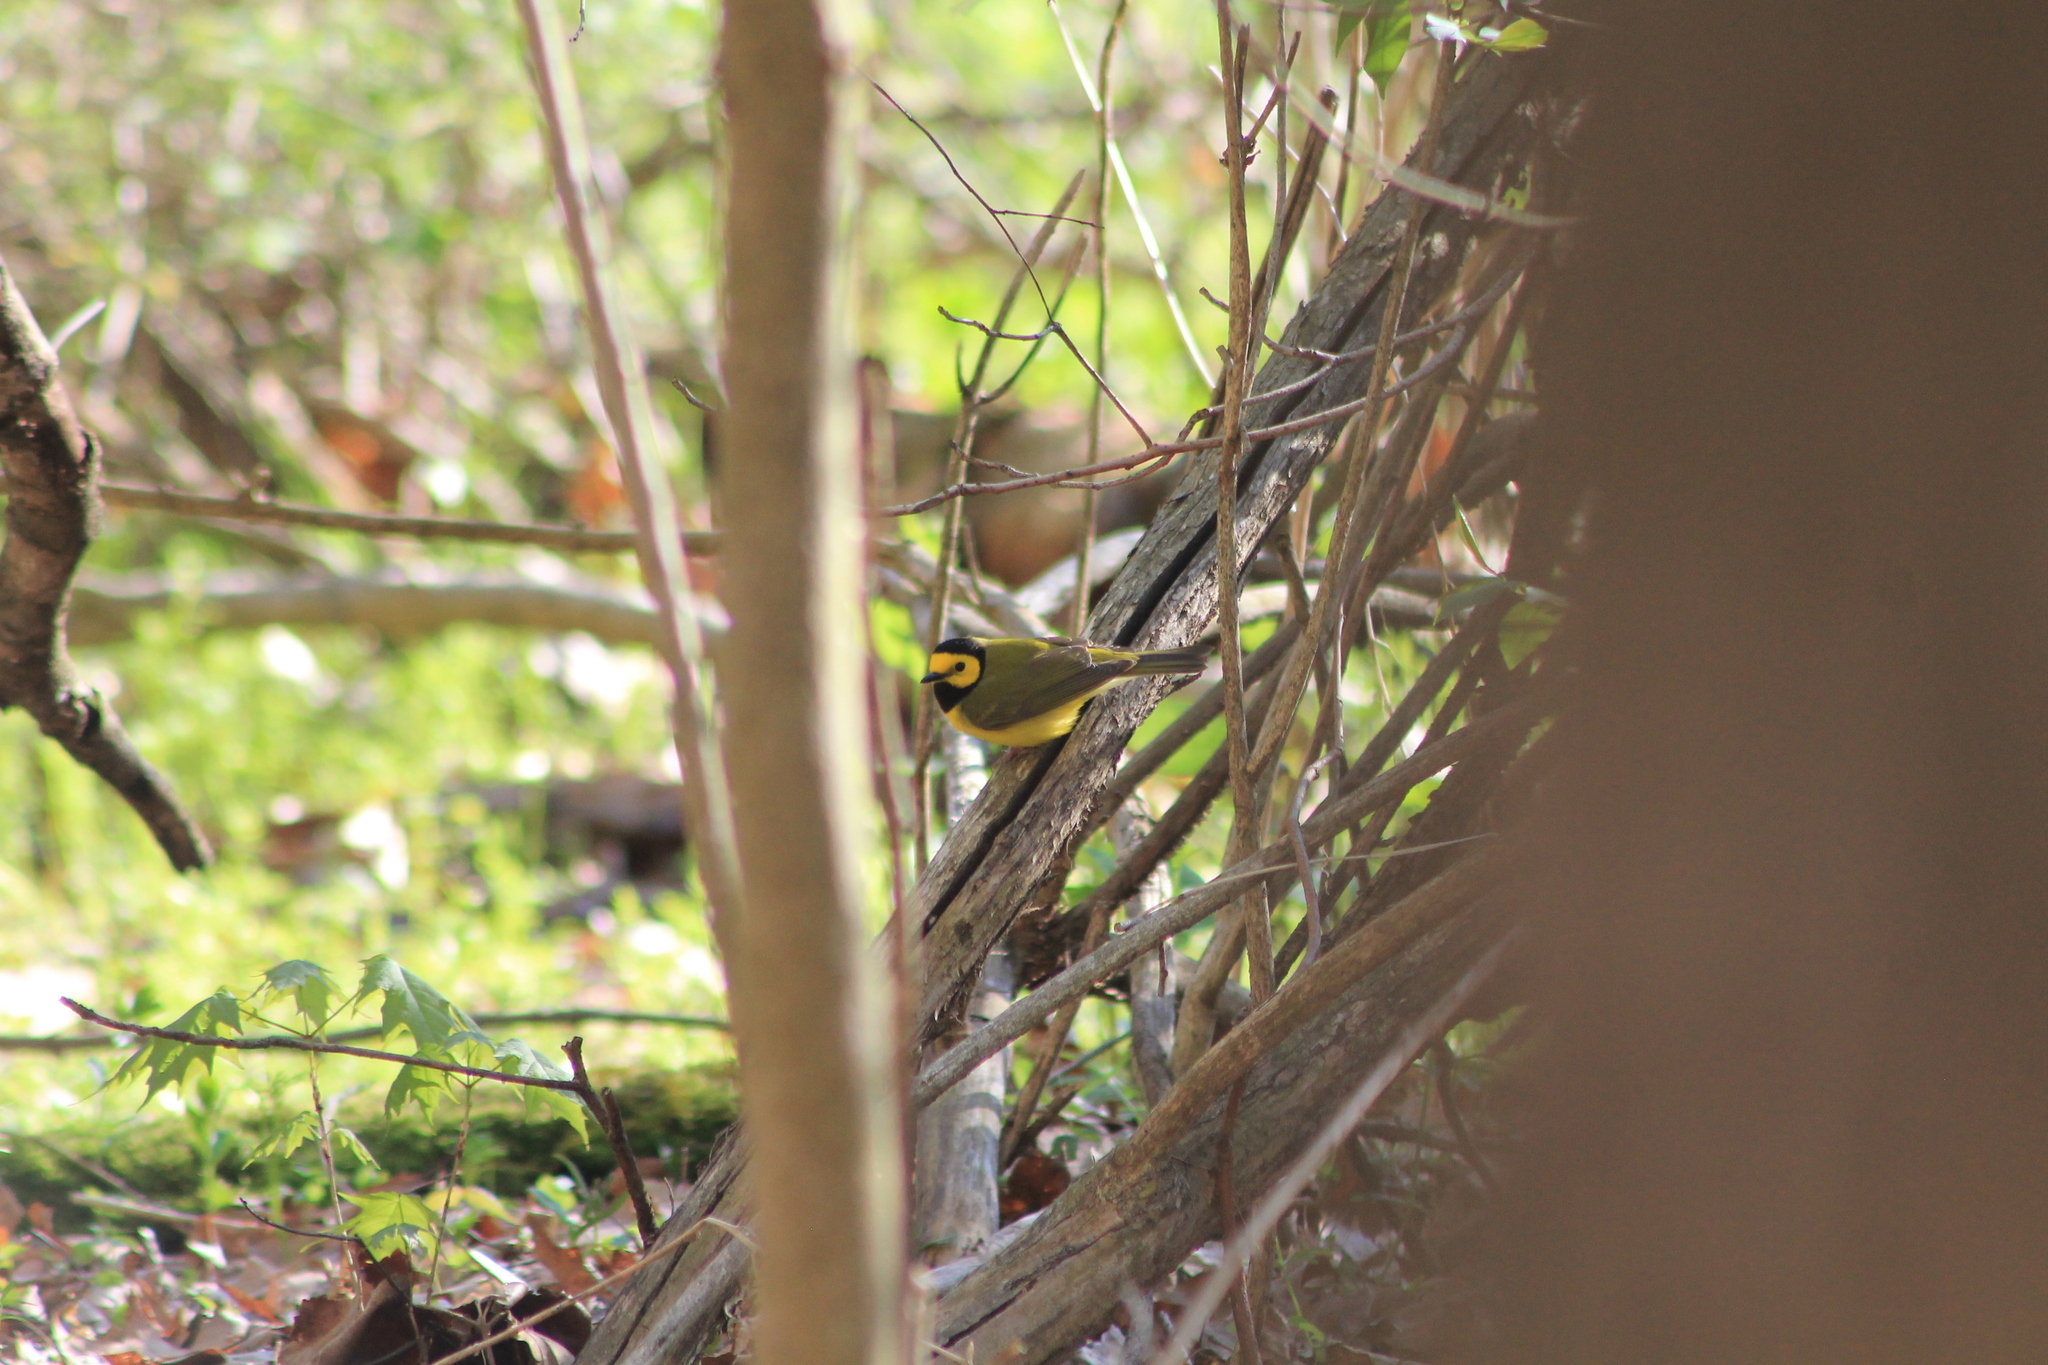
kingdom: Animalia
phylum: Chordata
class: Aves
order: Passeriformes
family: Parulidae
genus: Setophaga
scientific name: Setophaga citrina
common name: Hooded warbler
